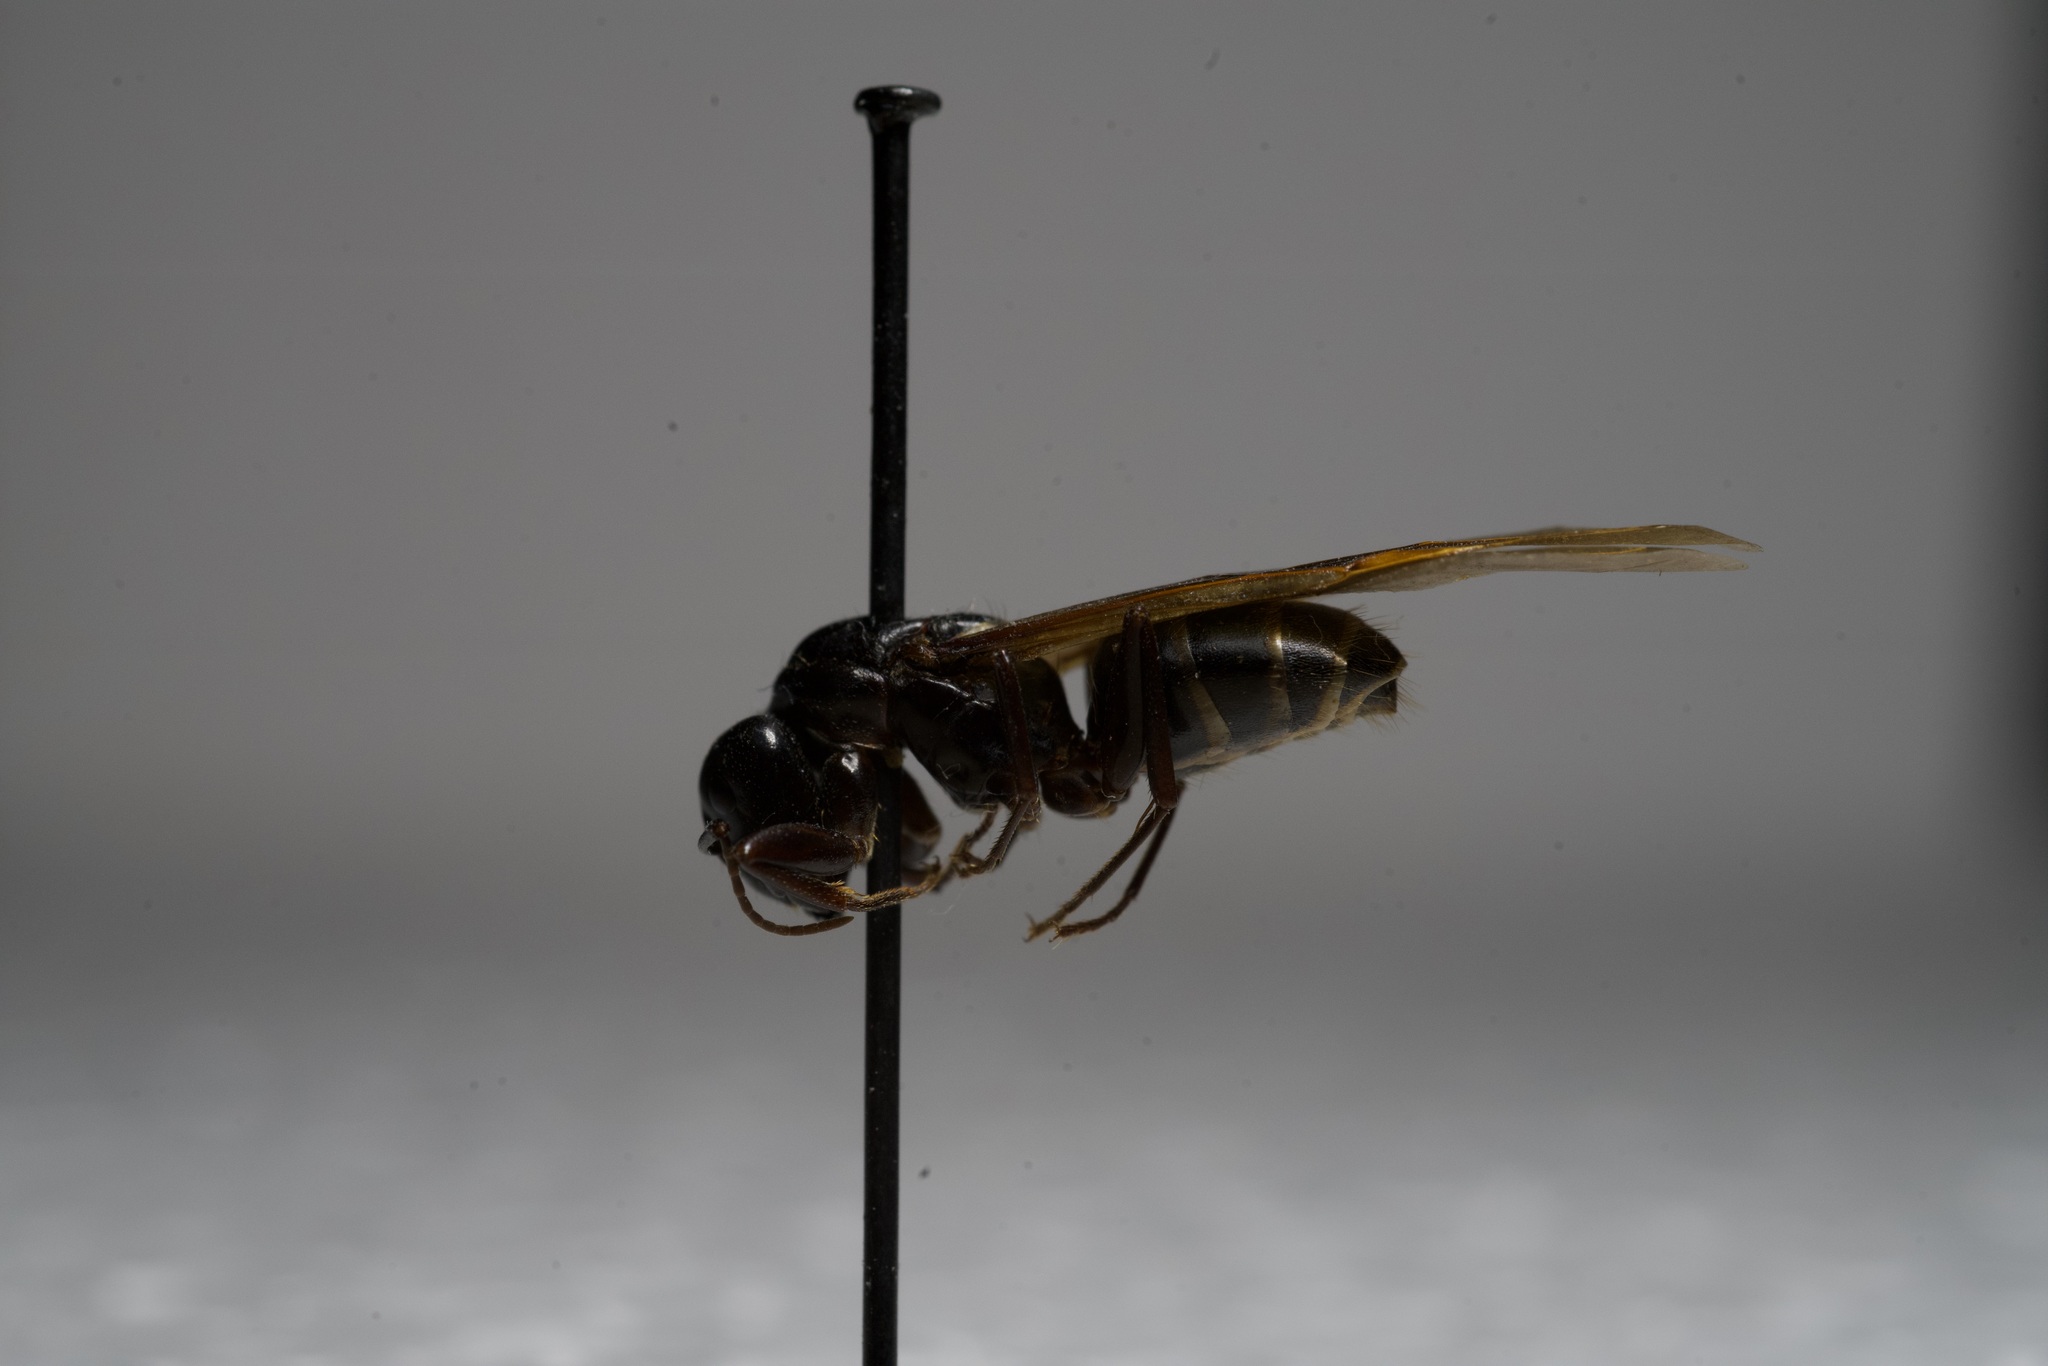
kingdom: Animalia
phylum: Arthropoda
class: Insecta
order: Hymenoptera
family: Formicidae
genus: Camponotus
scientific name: Camponotus pennsylvanicus
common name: Black carpenter ant
